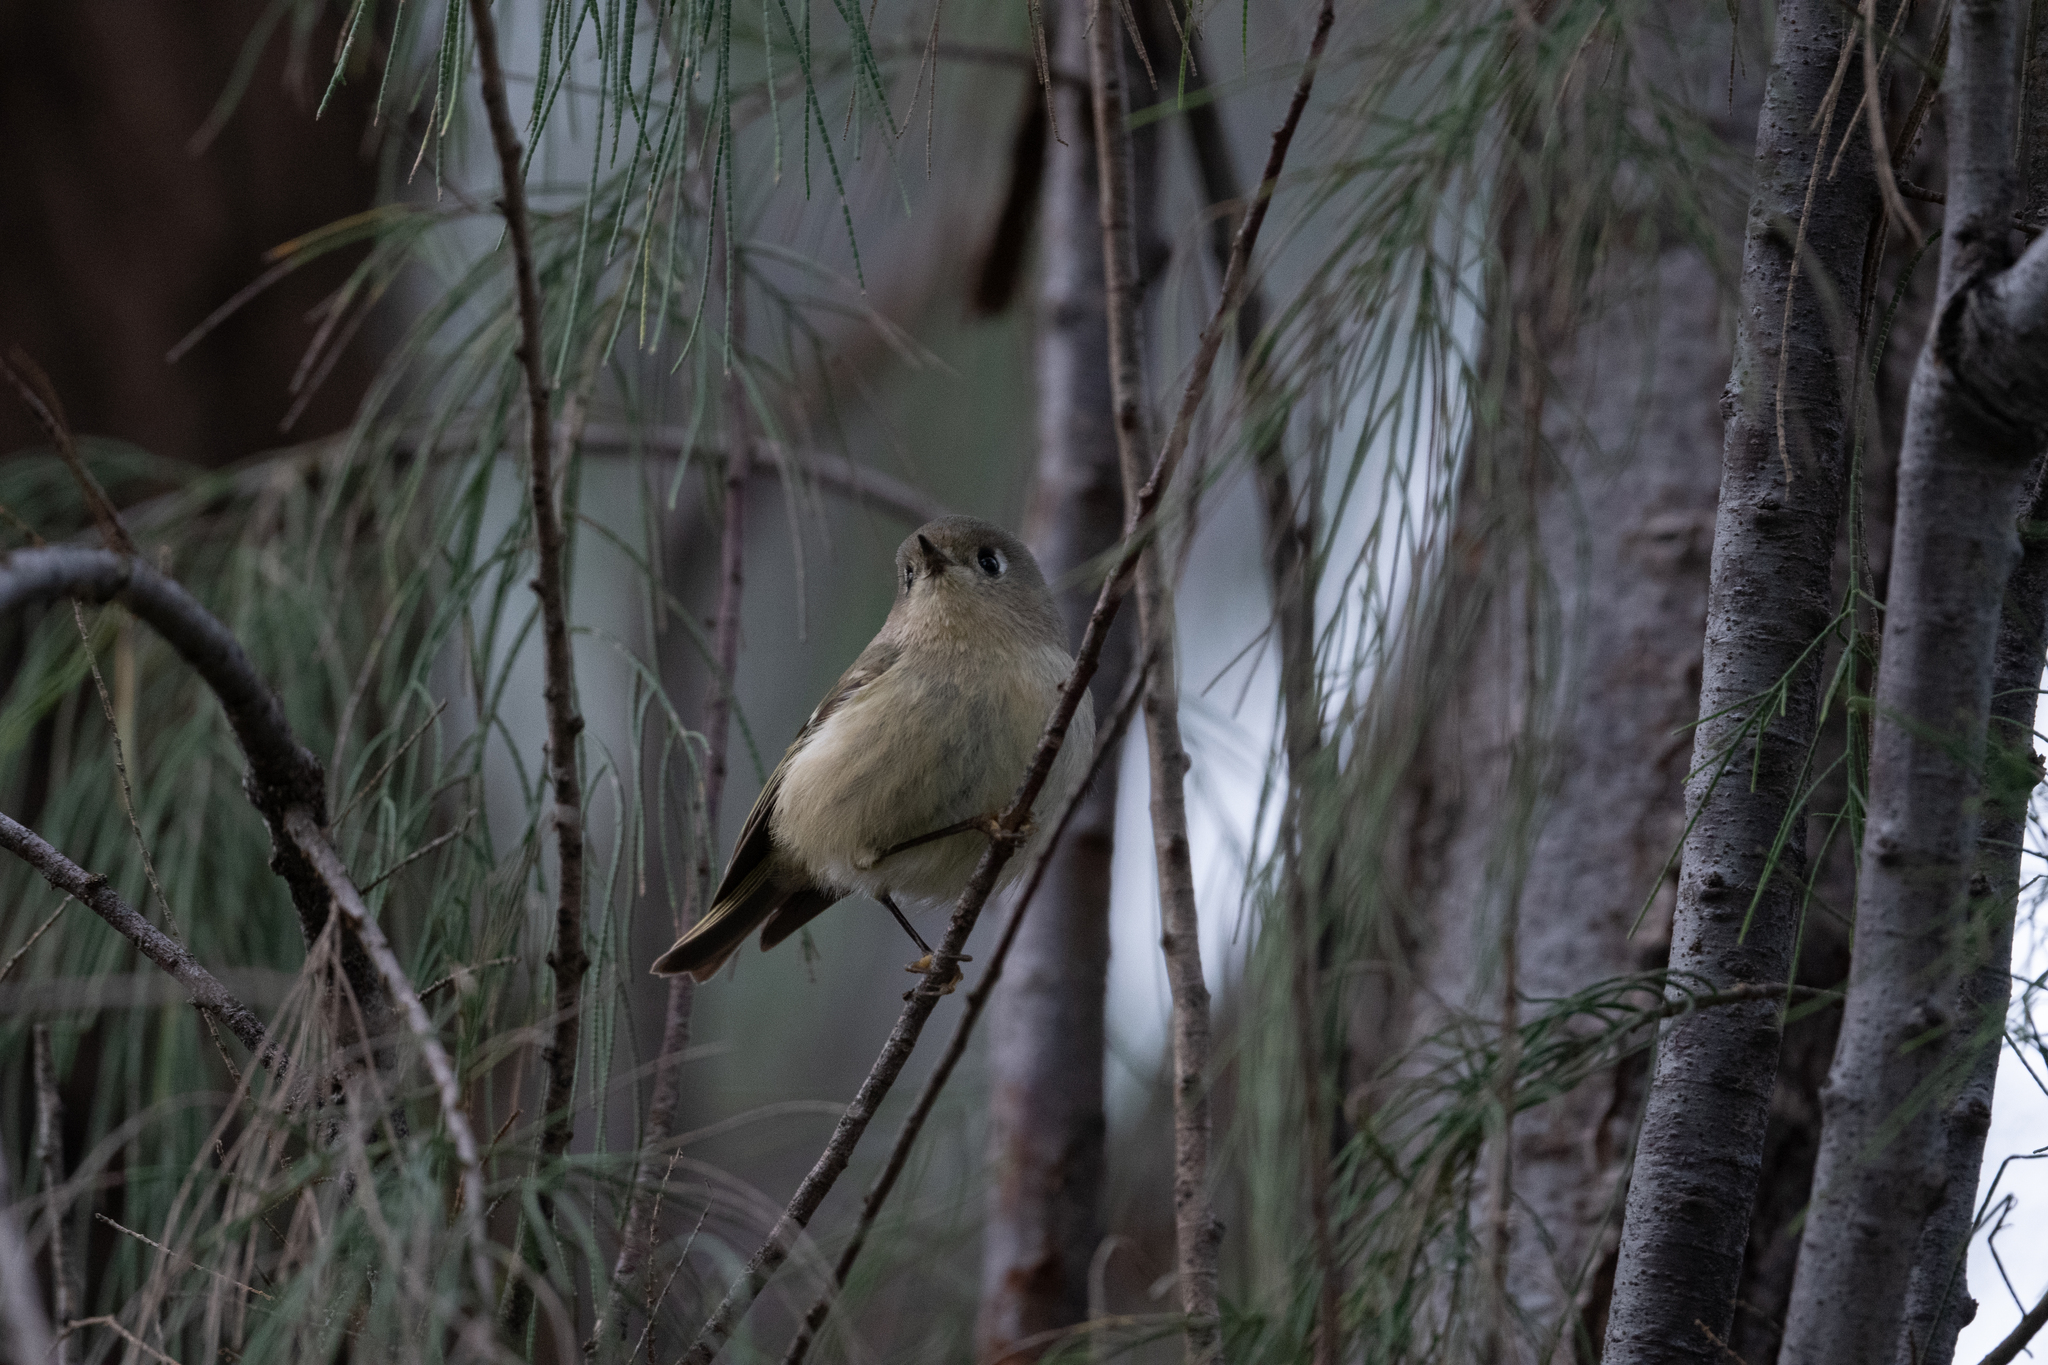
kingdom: Animalia
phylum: Chordata
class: Aves
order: Passeriformes
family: Regulidae
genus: Regulus
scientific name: Regulus calendula
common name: Ruby-crowned kinglet
